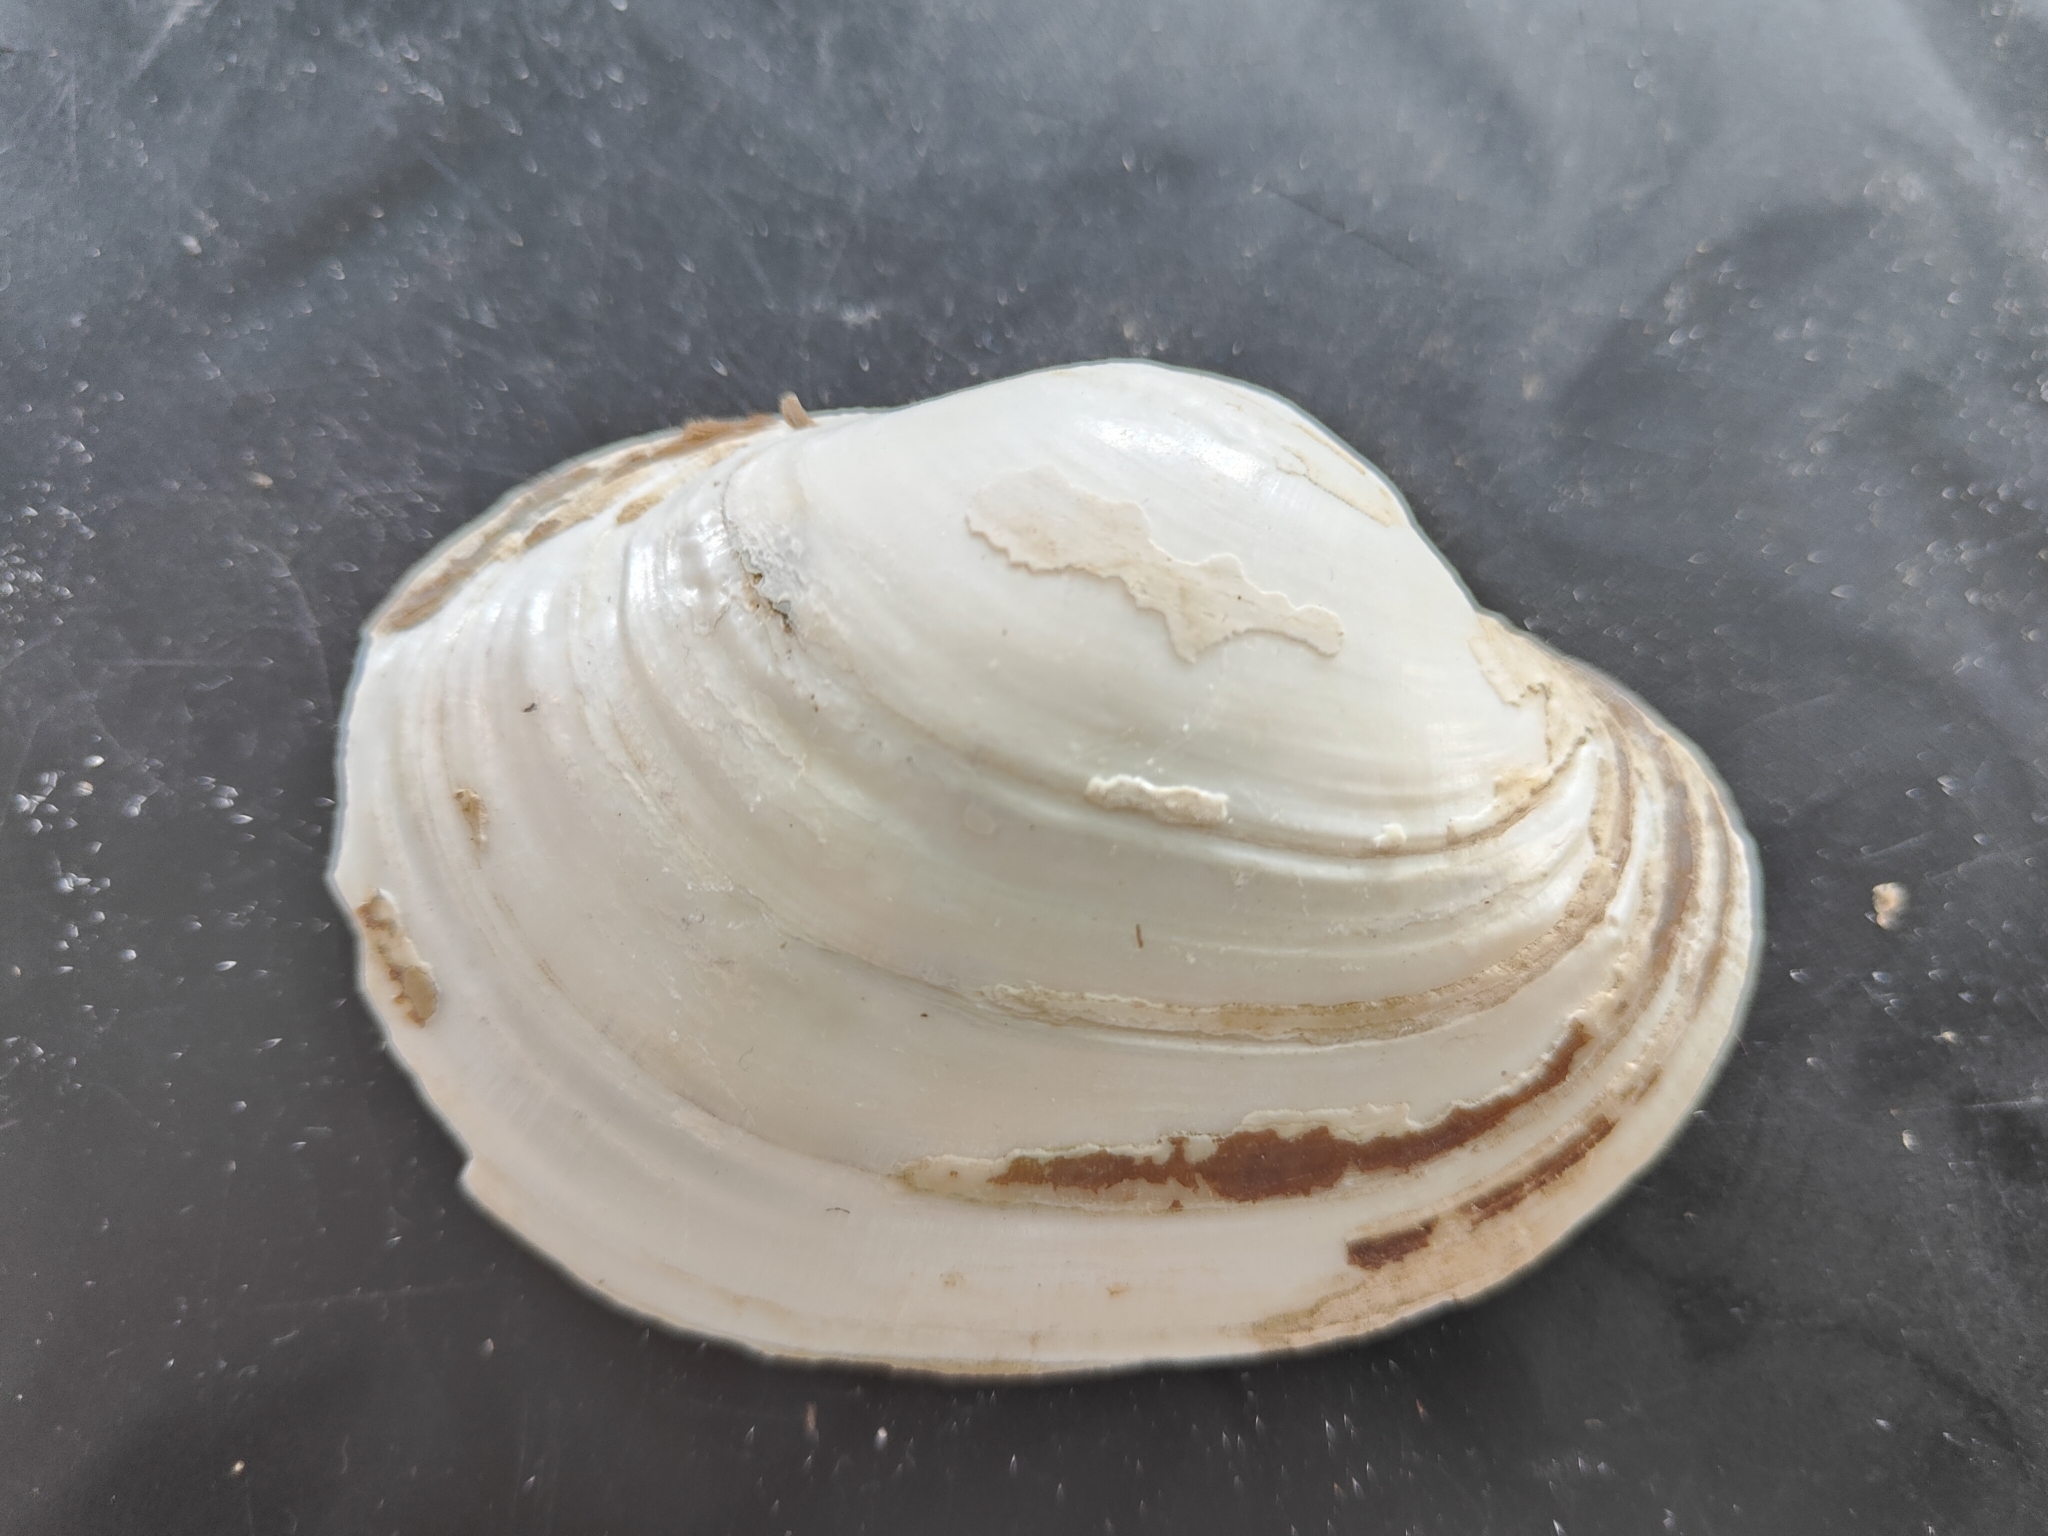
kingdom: Animalia
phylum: Mollusca
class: Bivalvia
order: Unionida
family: Unionidae
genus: Lampsilis
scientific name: Lampsilis cardium
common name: Plain pocketbook
